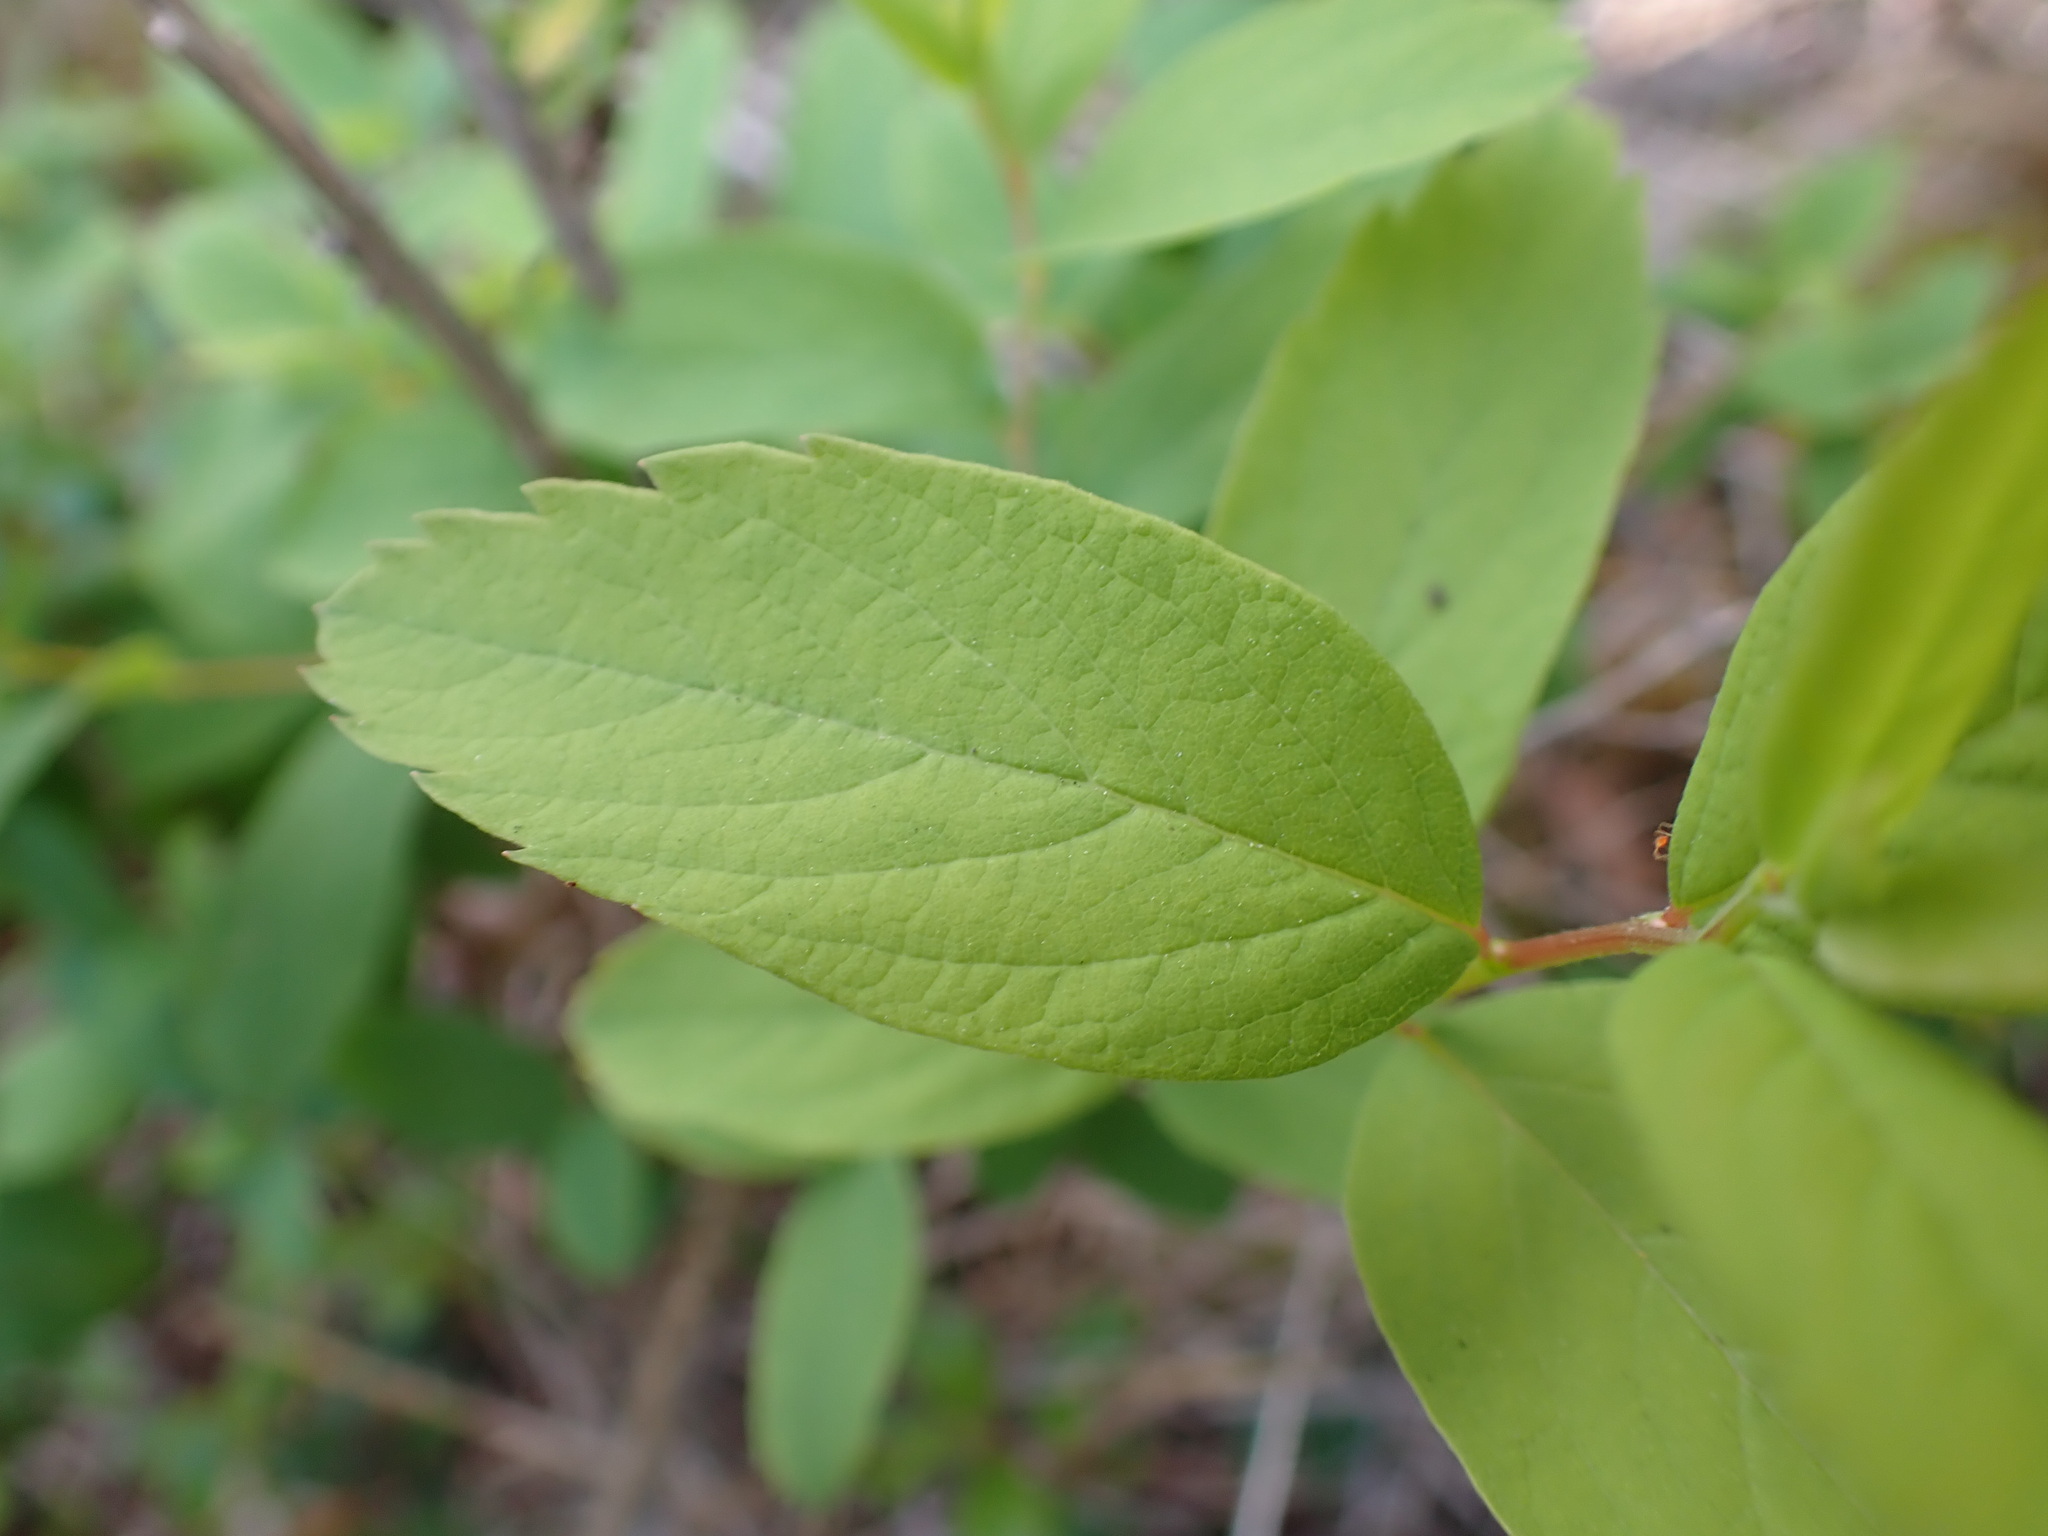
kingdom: Plantae
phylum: Tracheophyta
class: Magnoliopsida
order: Rosales
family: Rosaceae
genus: Spiraea
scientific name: Spiraea douglasii
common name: Steeplebush
